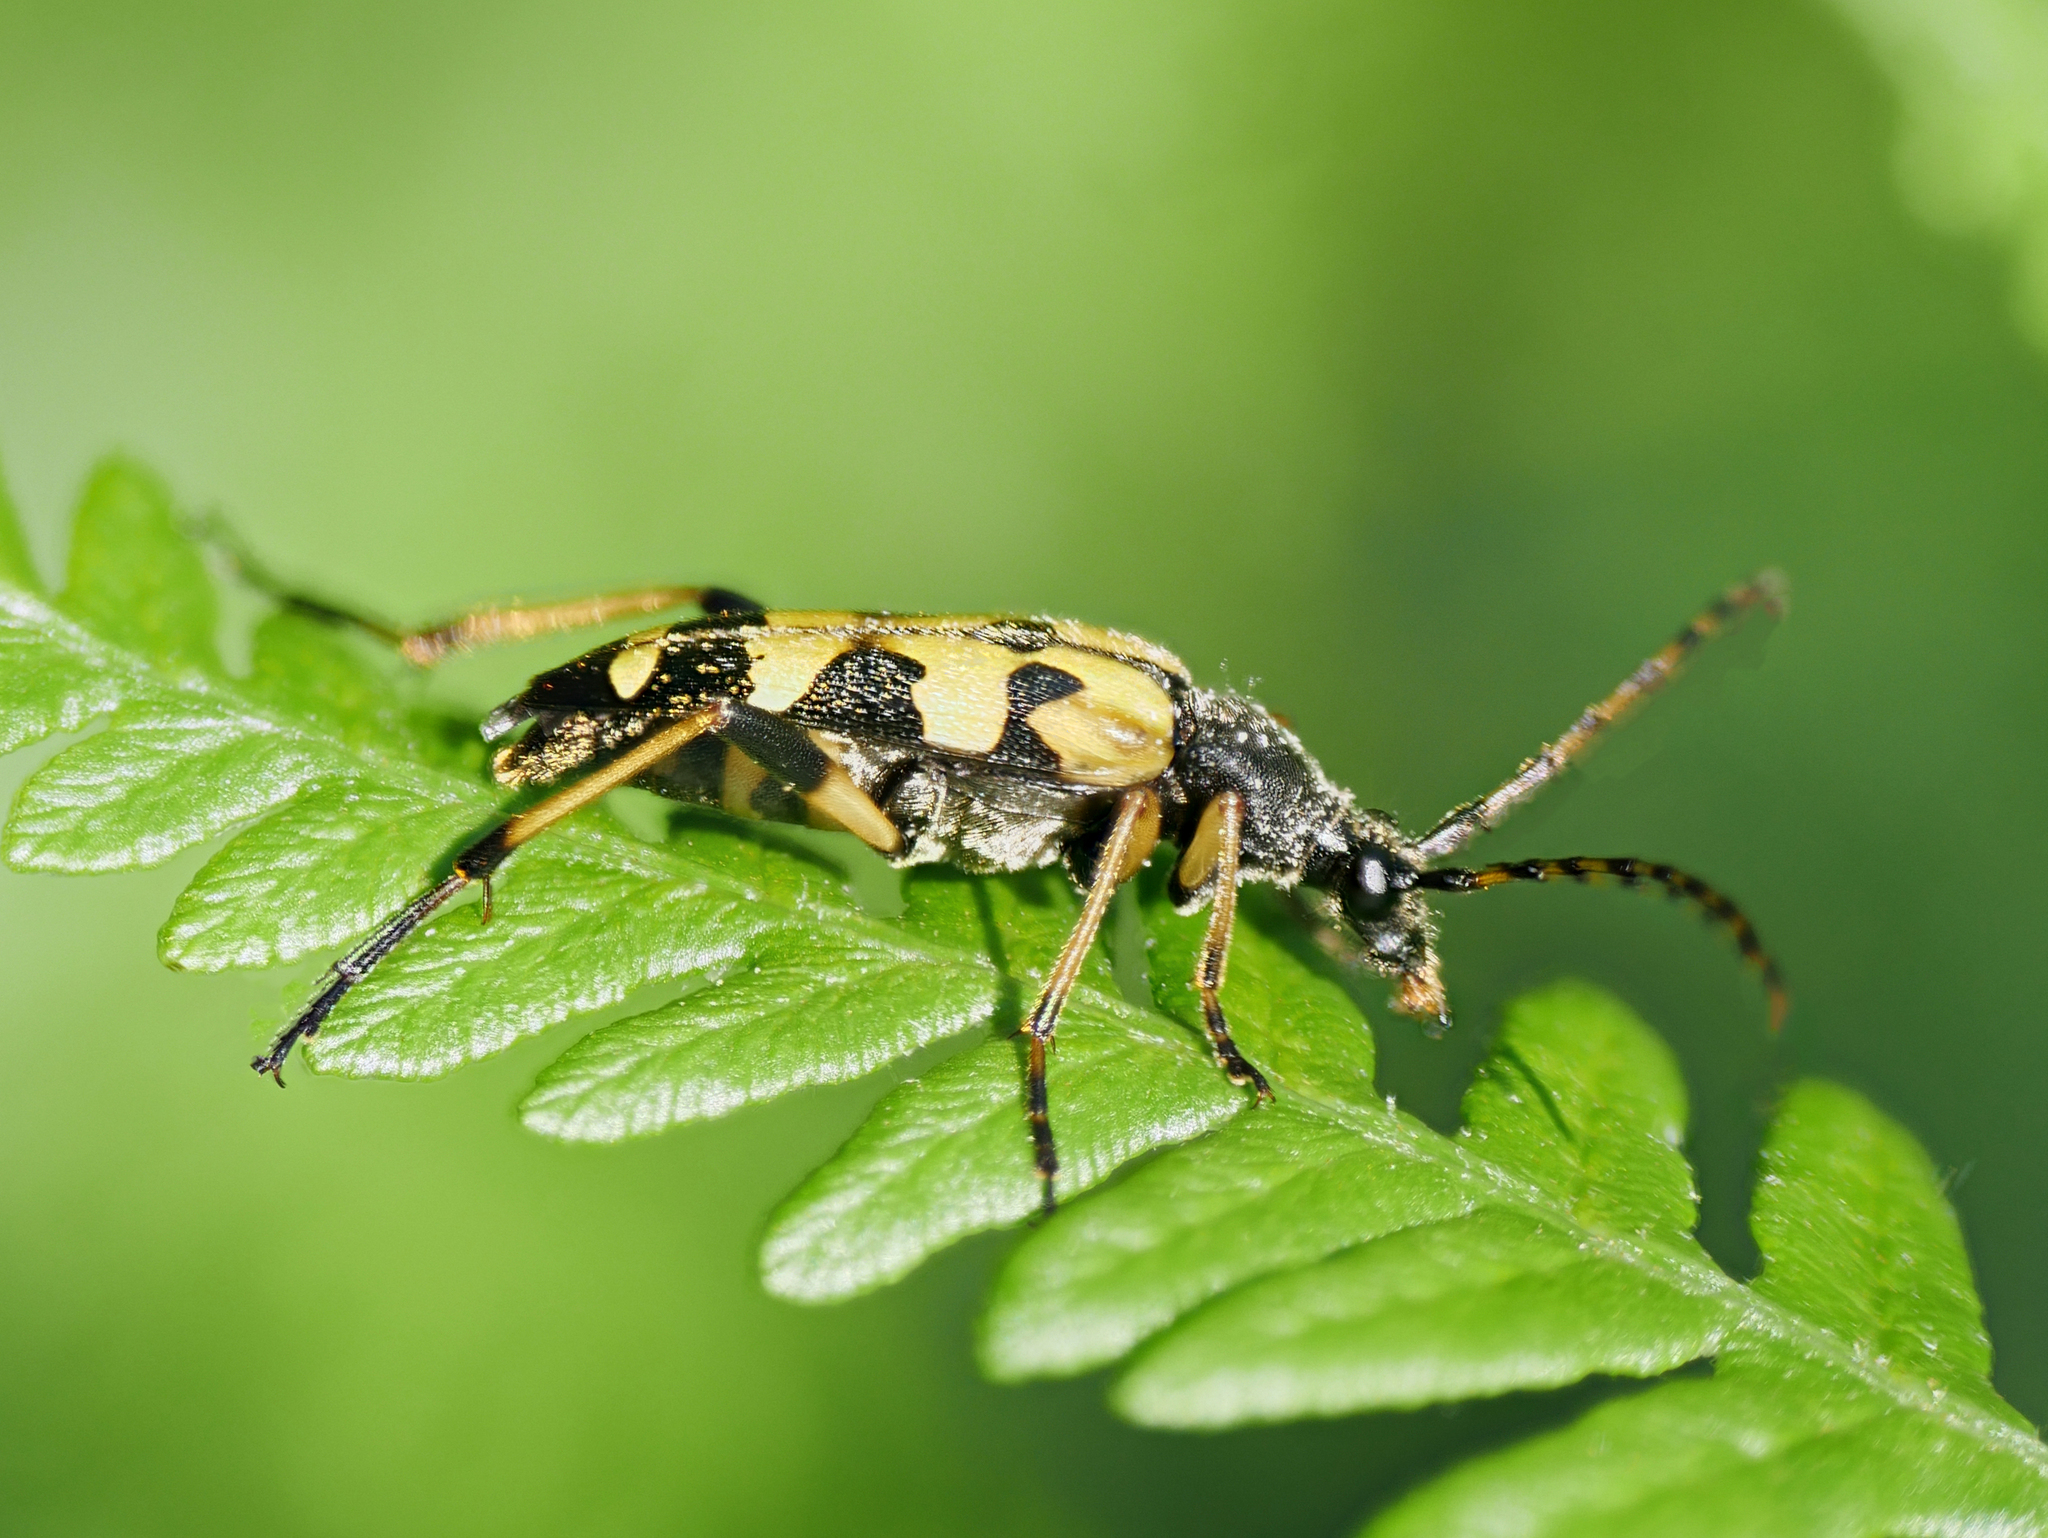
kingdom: Animalia
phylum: Arthropoda
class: Insecta
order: Coleoptera
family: Cerambycidae
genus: Rutpela
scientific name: Rutpela maculata
